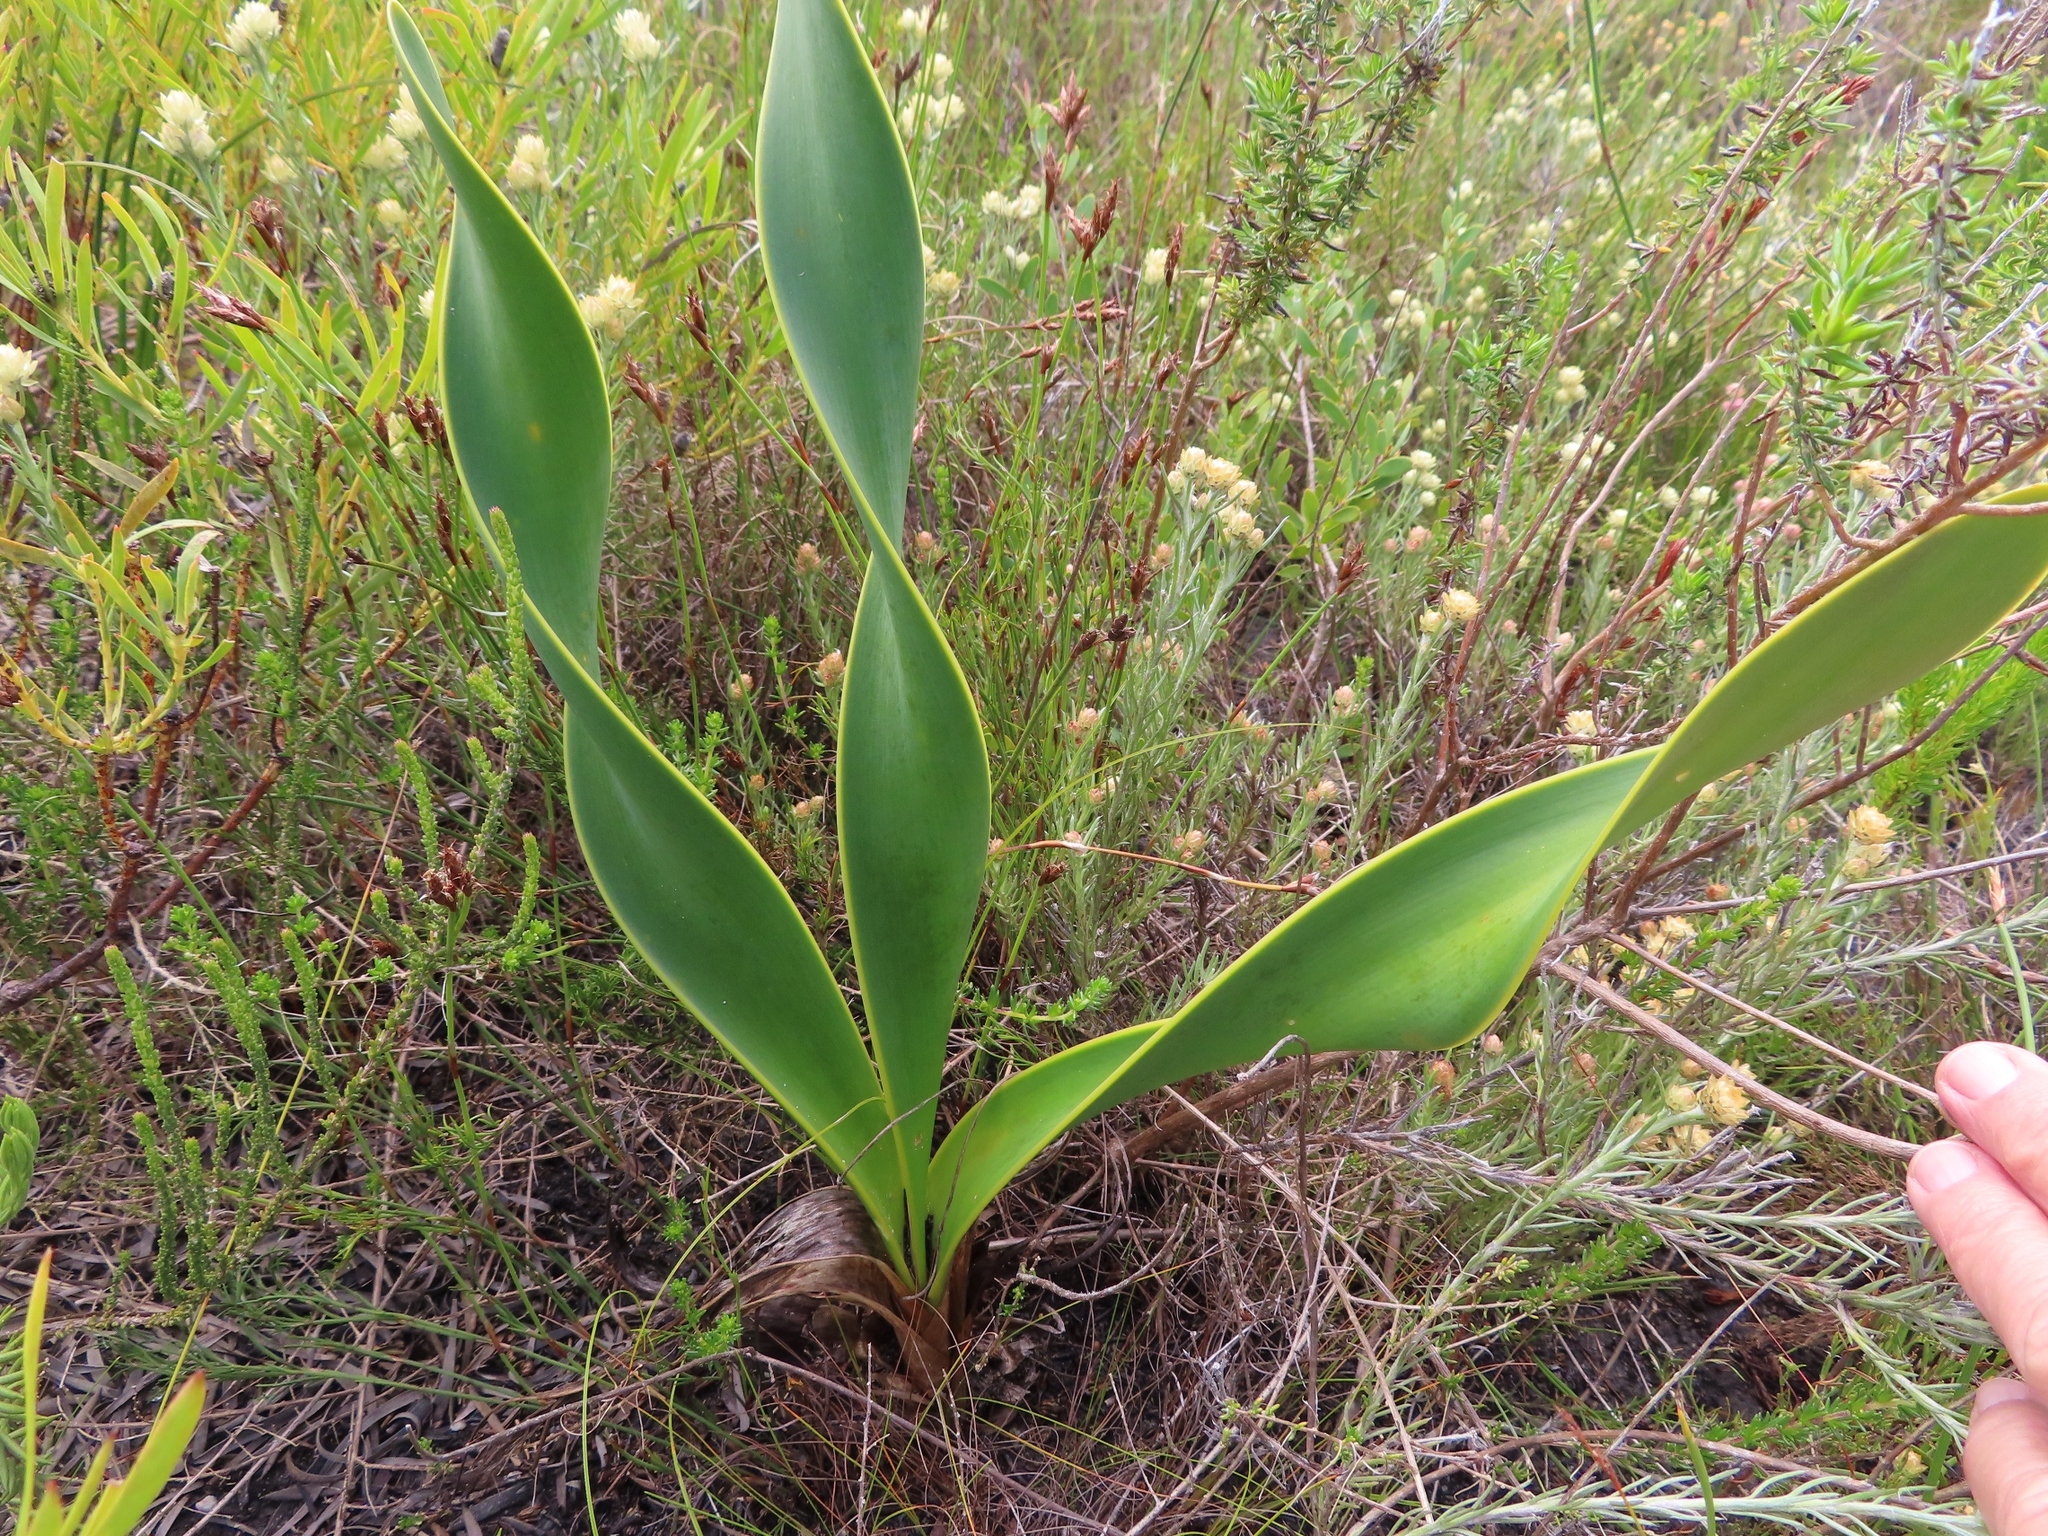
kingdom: Plantae
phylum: Tracheophyta
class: Liliopsida
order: Asparagales
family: Amaryllidaceae
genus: Cyrtanthus
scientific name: Cyrtanthus carneus
